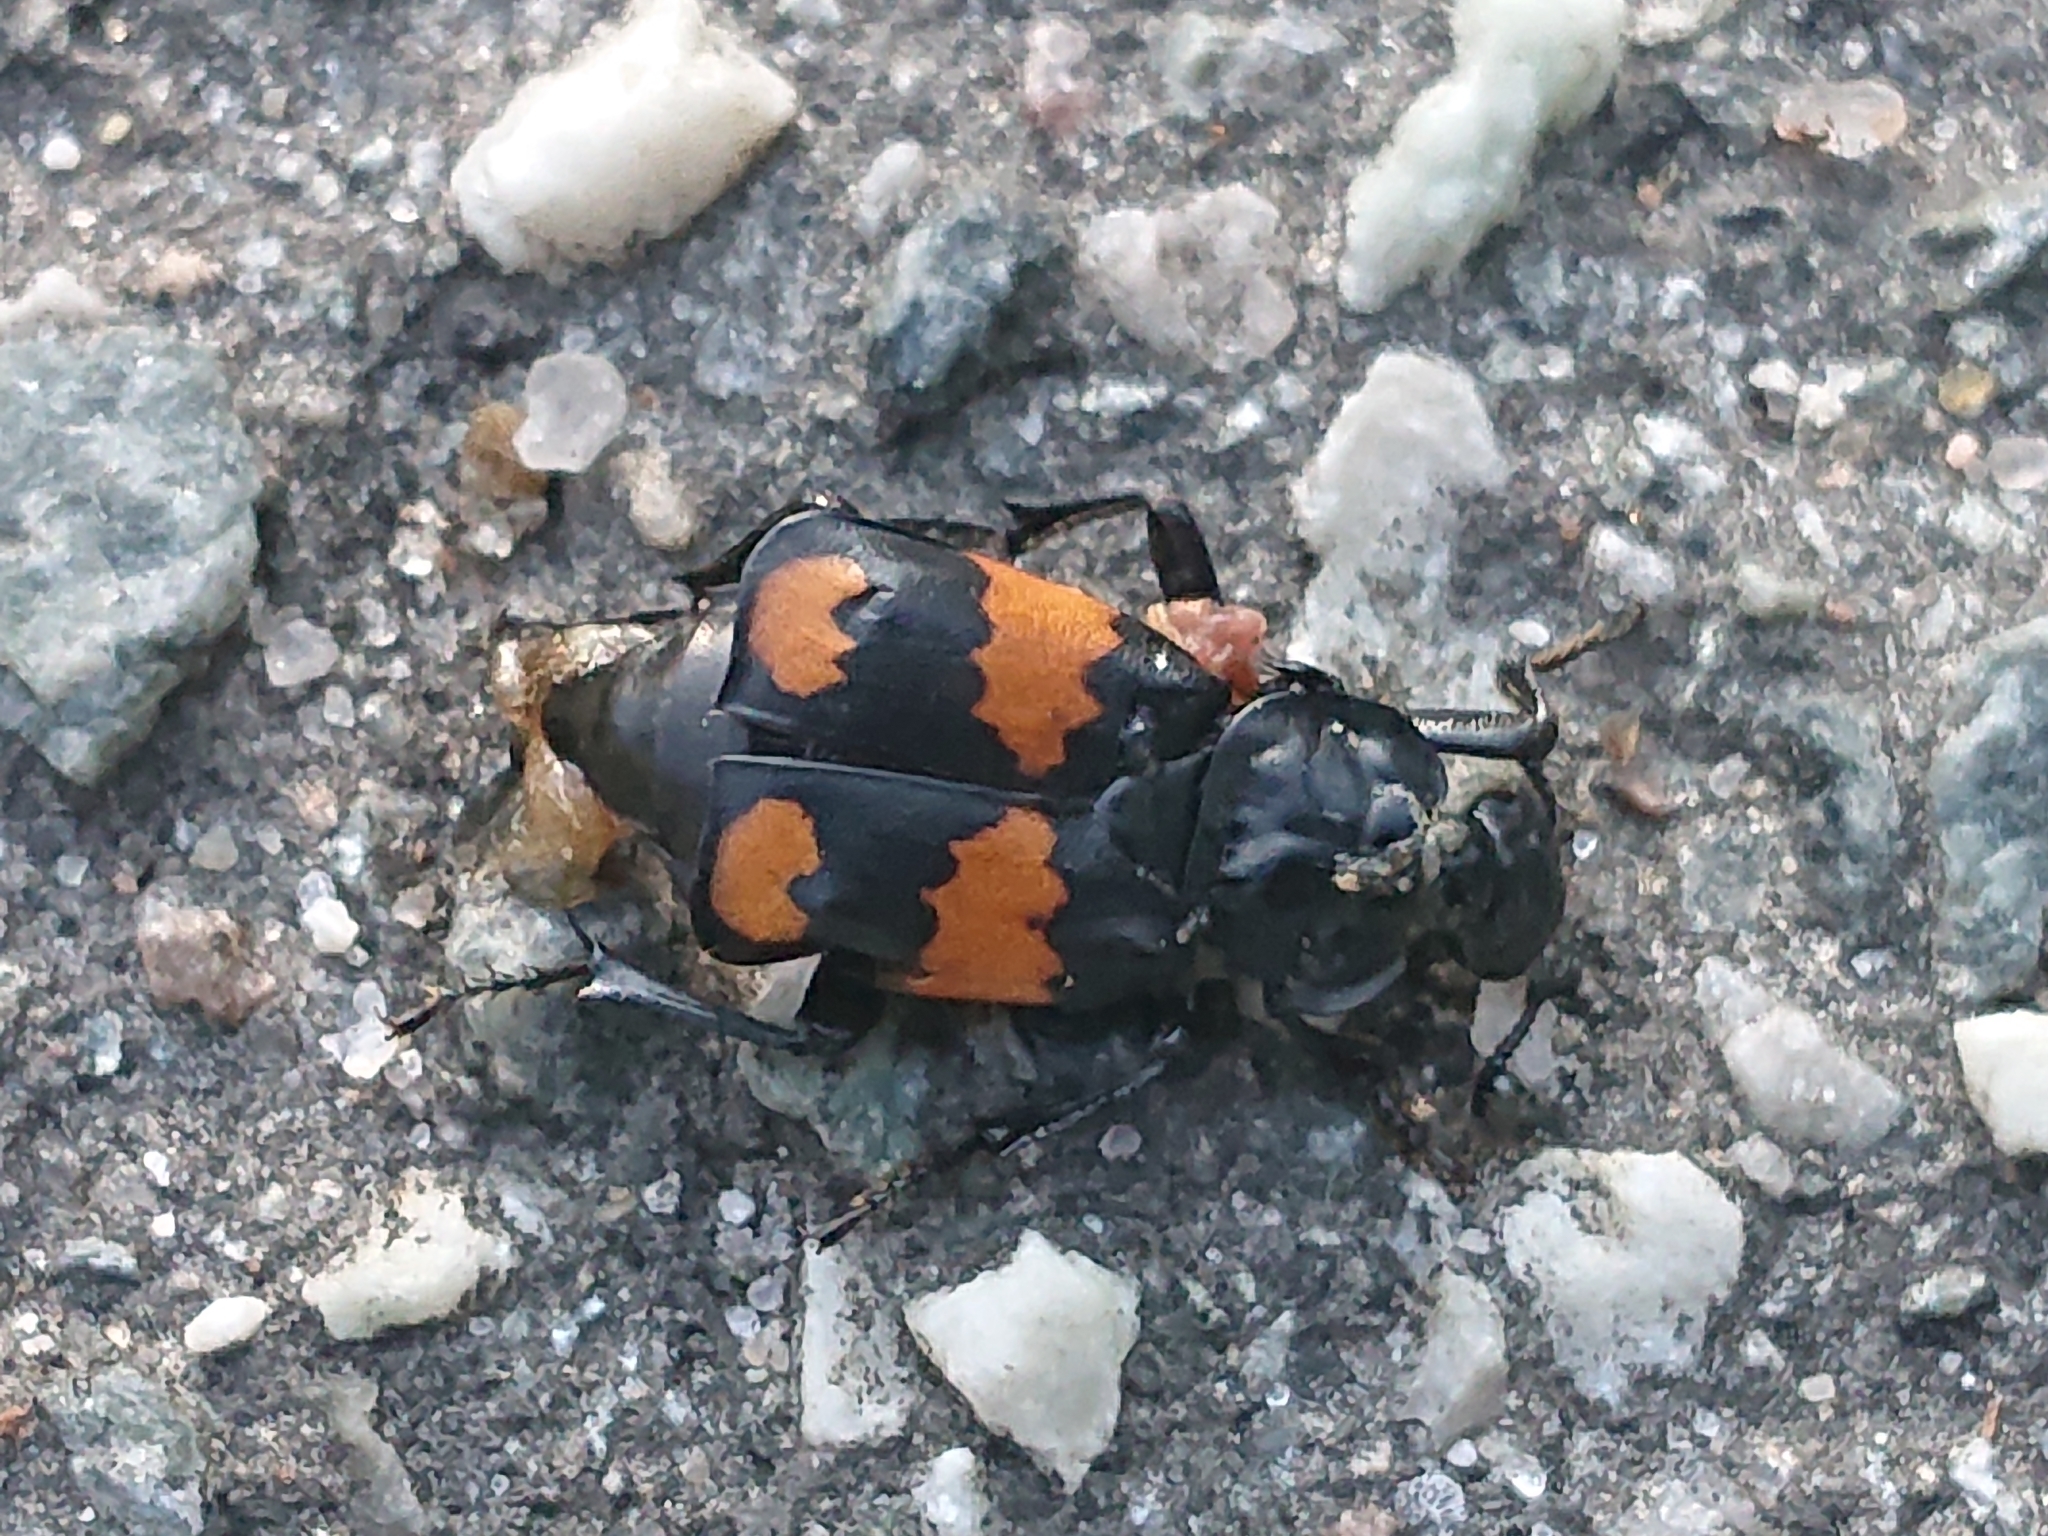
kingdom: Animalia
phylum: Arthropoda
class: Insecta
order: Coleoptera
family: Staphylinidae
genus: Nicrophorus
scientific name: Nicrophorus vespilloides
